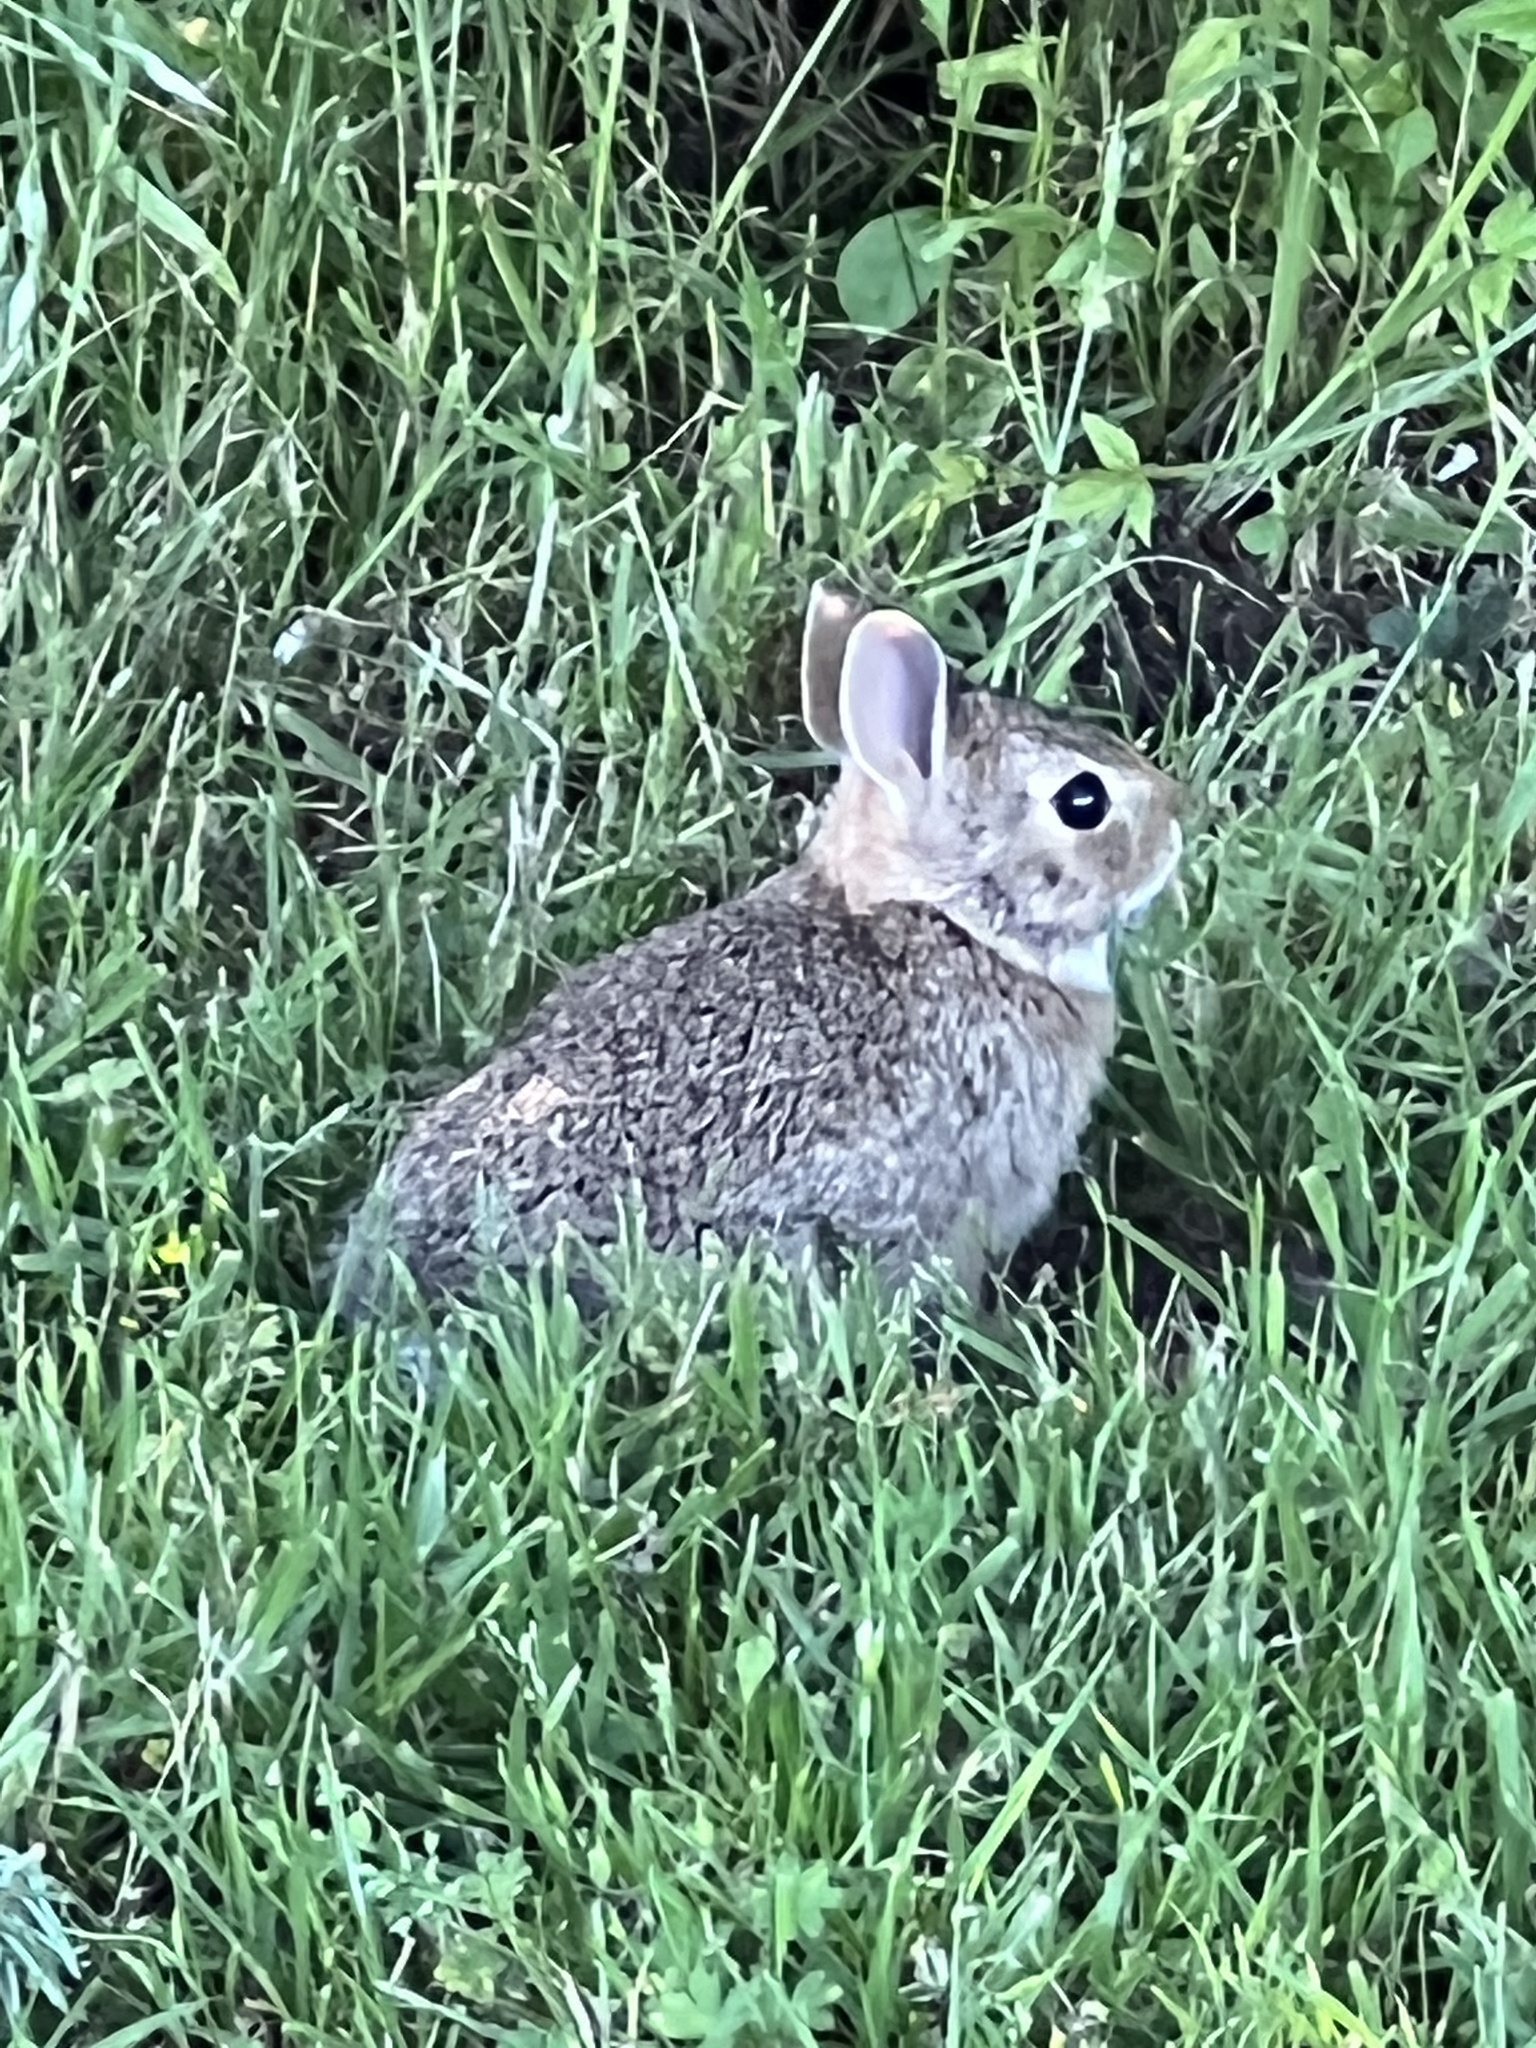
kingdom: Animalia
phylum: Chordata
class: Mammalia
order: Lagomorpha
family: Leporidae
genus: Sylvilagus
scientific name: Sylvilagus floridanus
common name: Eastern cottontail
